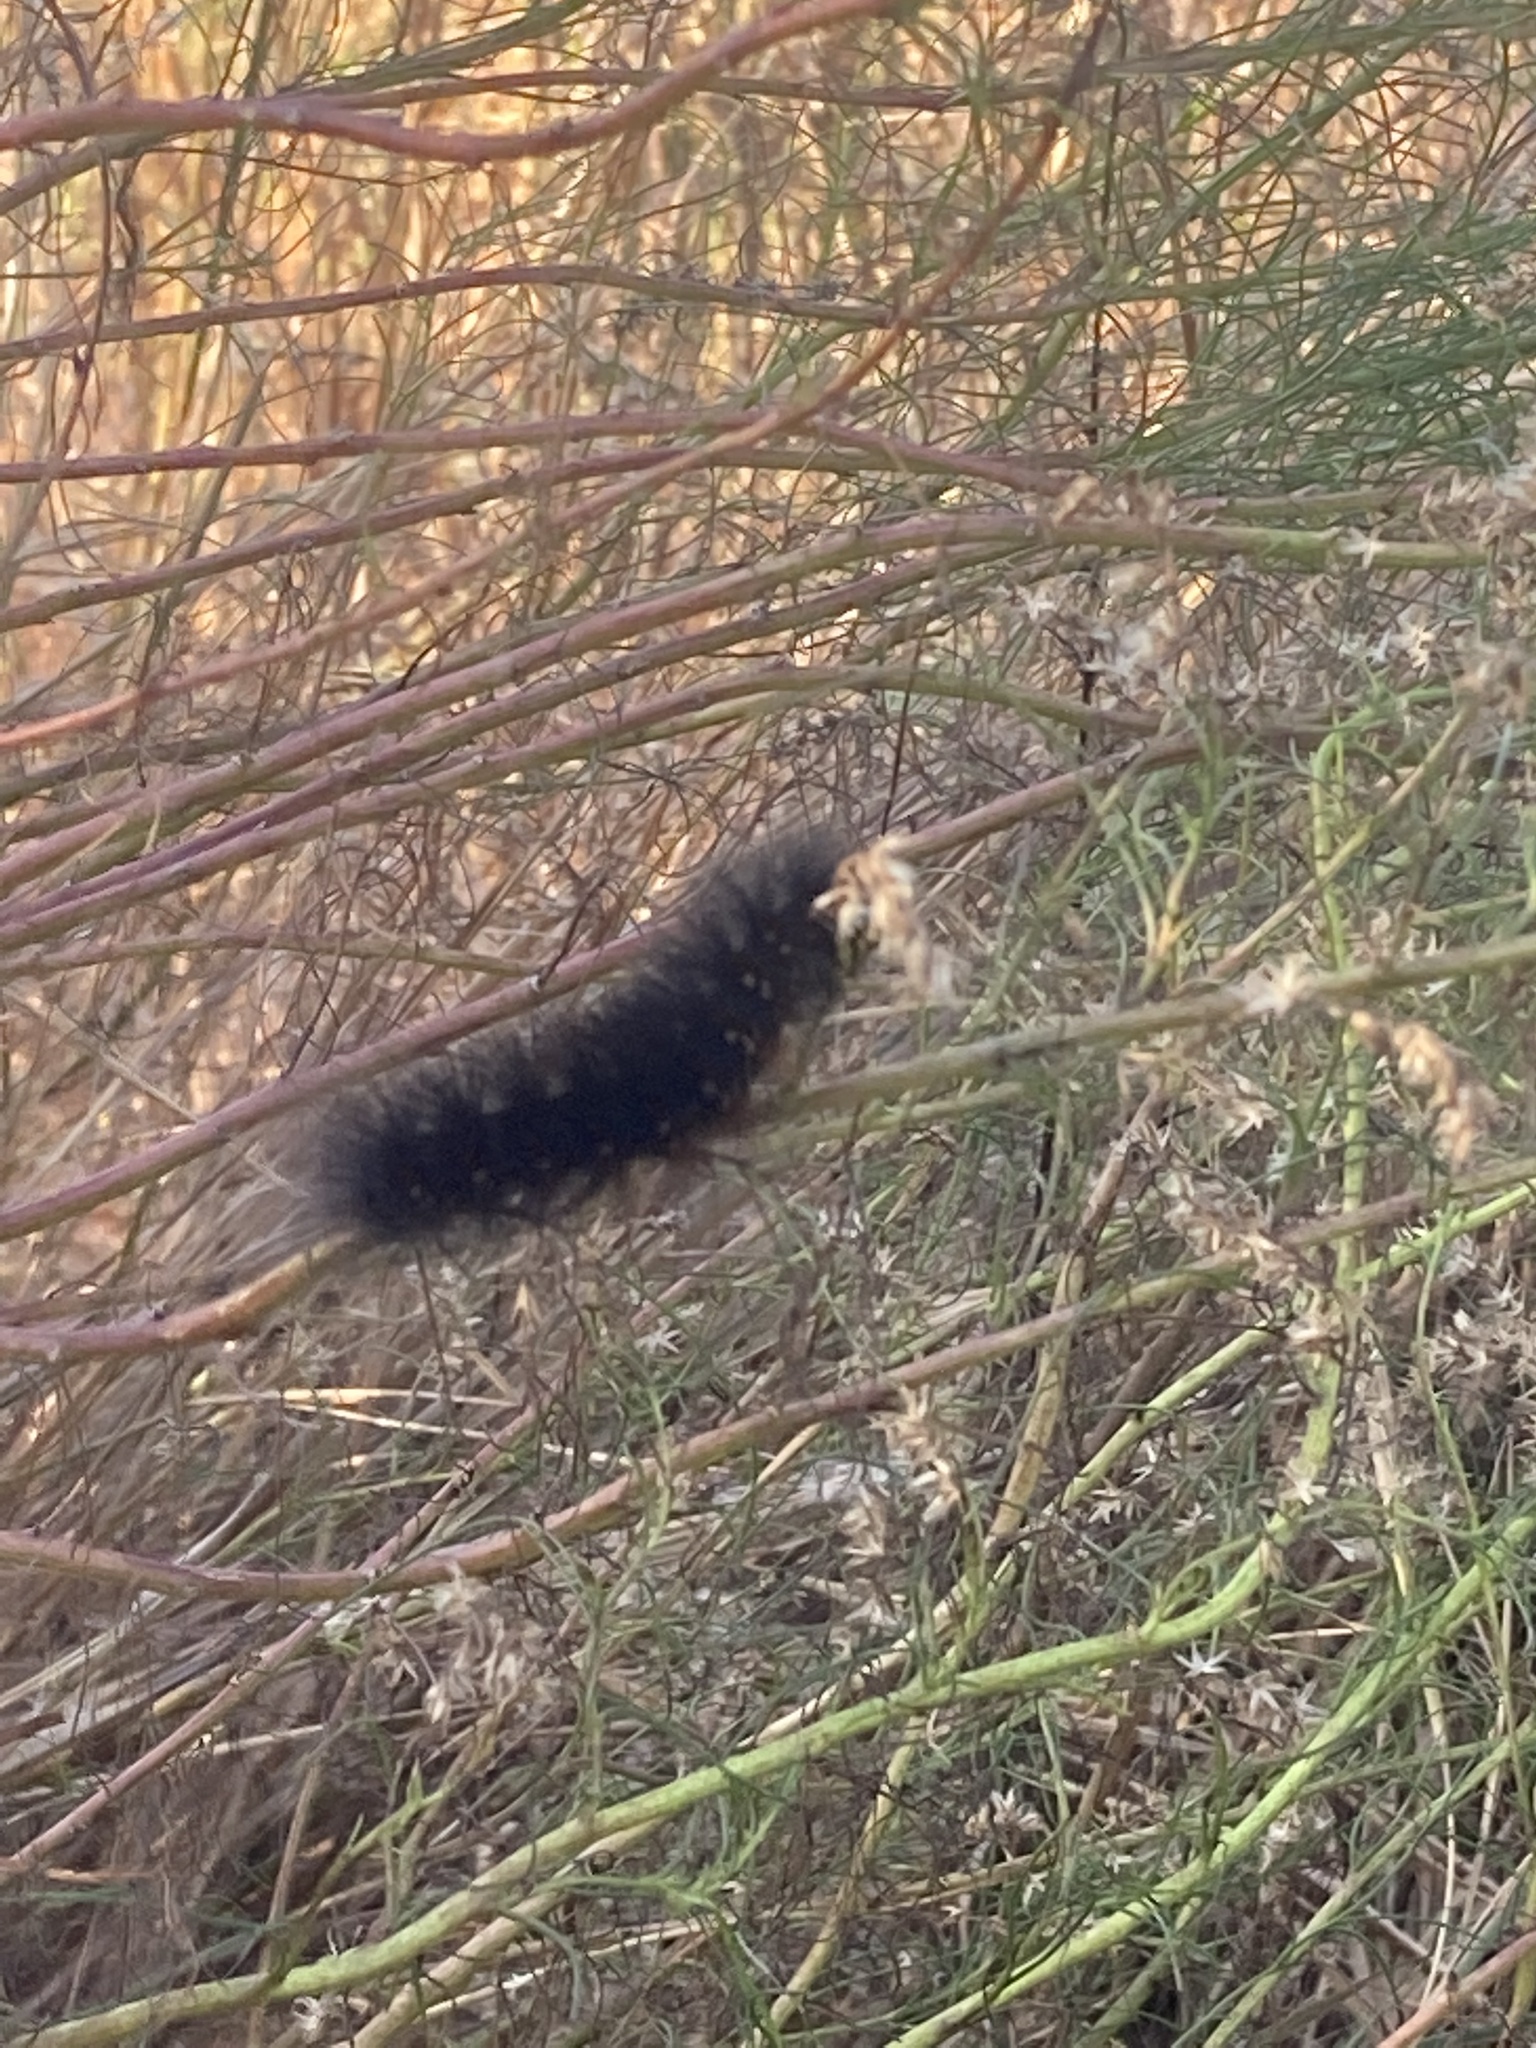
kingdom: Animalia
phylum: Arthropoda
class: Insecta
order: Lepidoptera
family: Erebidae
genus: Estigmene
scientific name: Estigmene acrea
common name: Salt marsh moth
